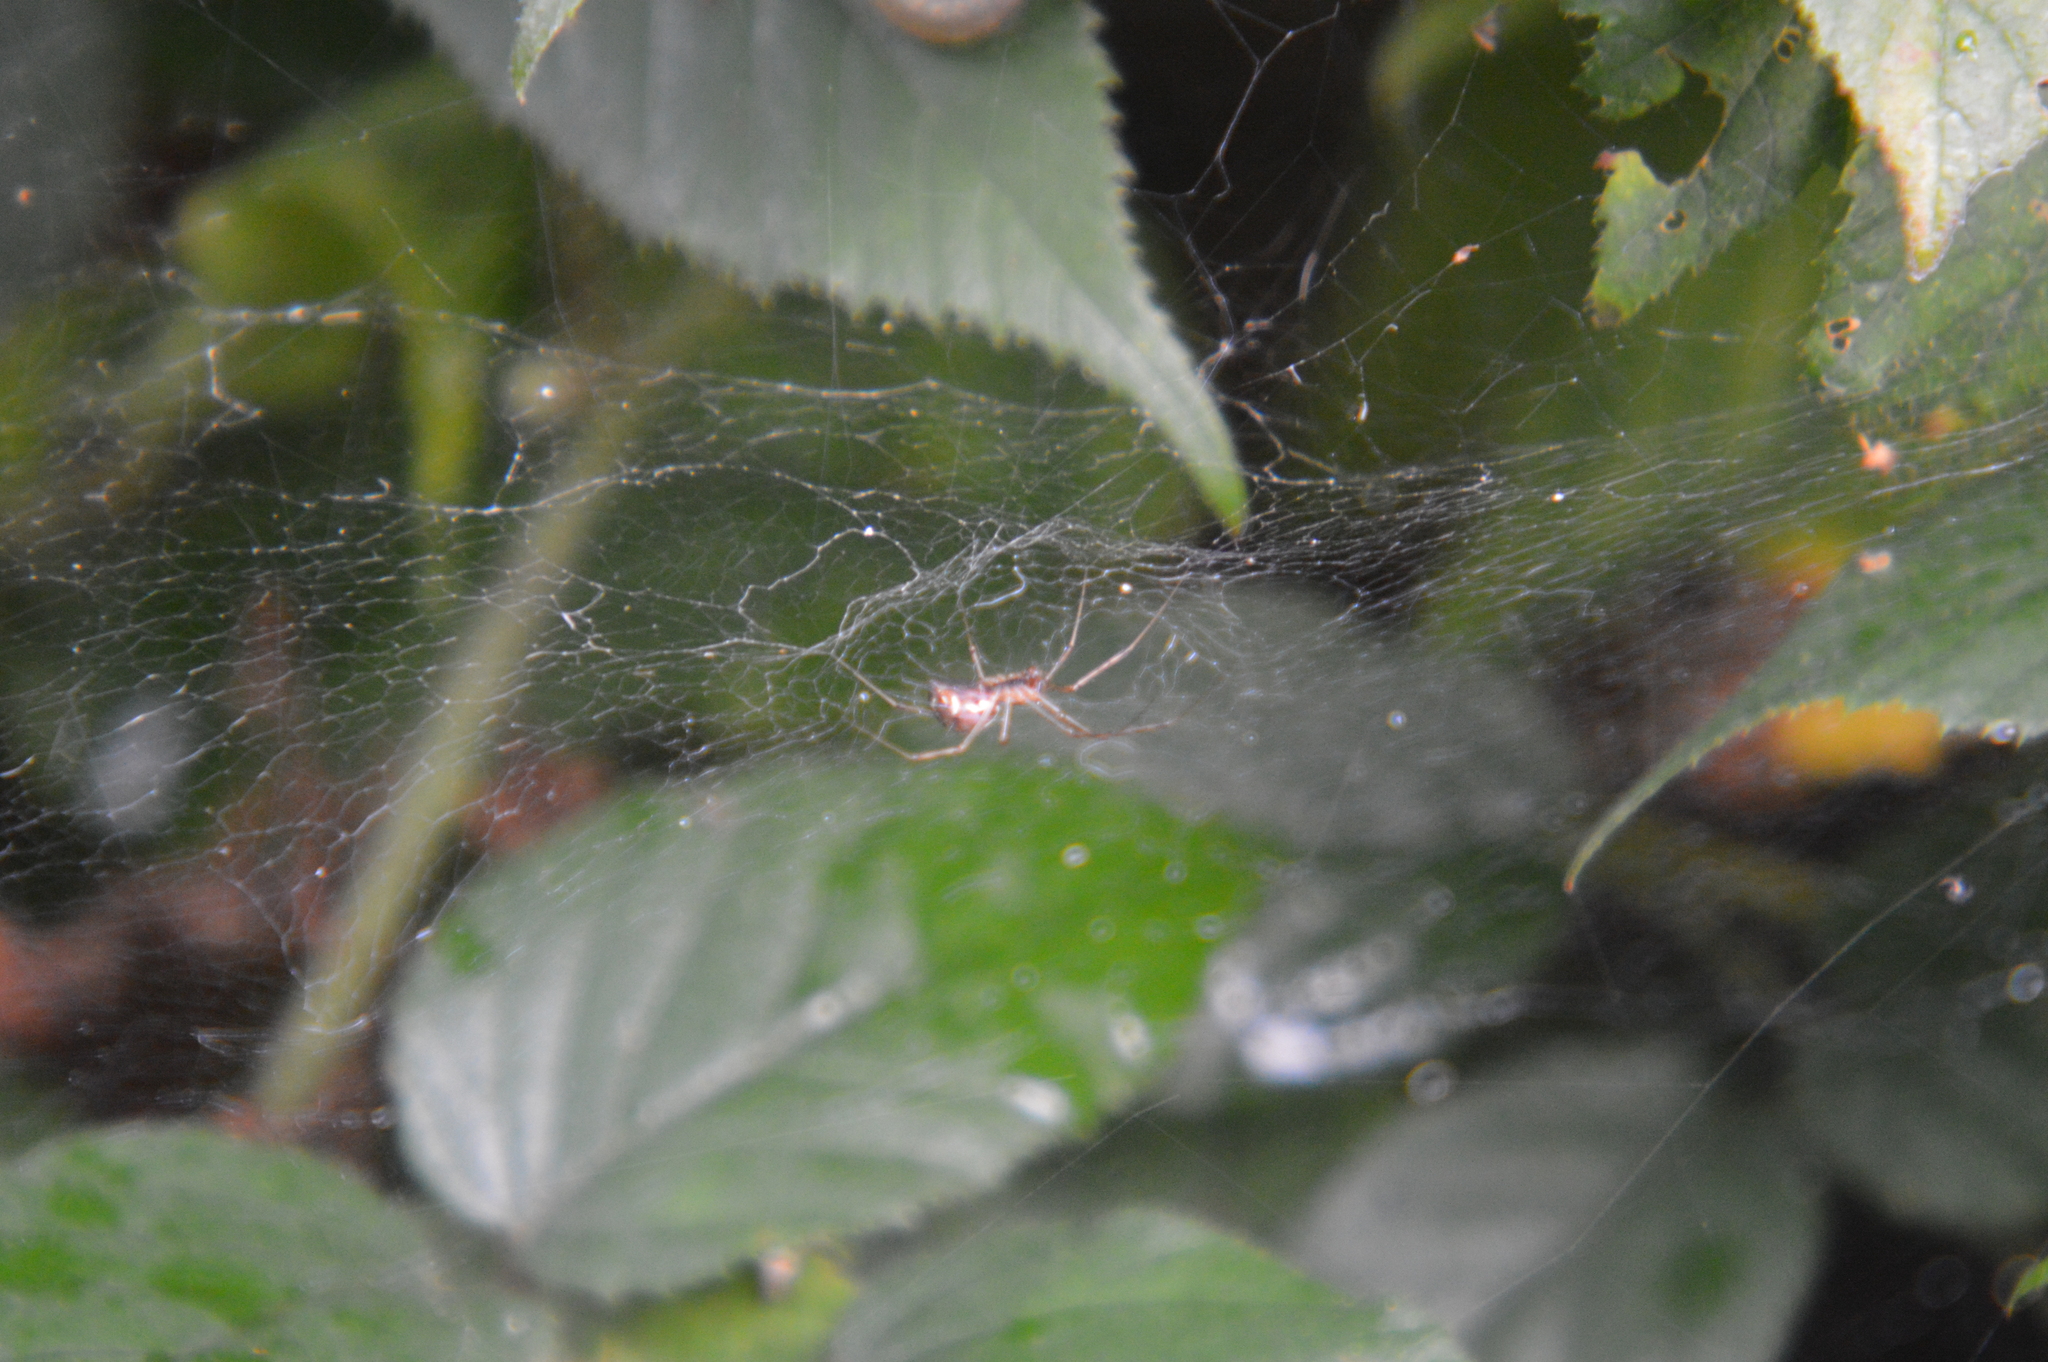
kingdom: Animalia
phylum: Arthropoda
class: Arachnida
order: Araneae
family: Linyphiidae
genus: Linyphia
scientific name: Linyphia triangularis
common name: Money spider
